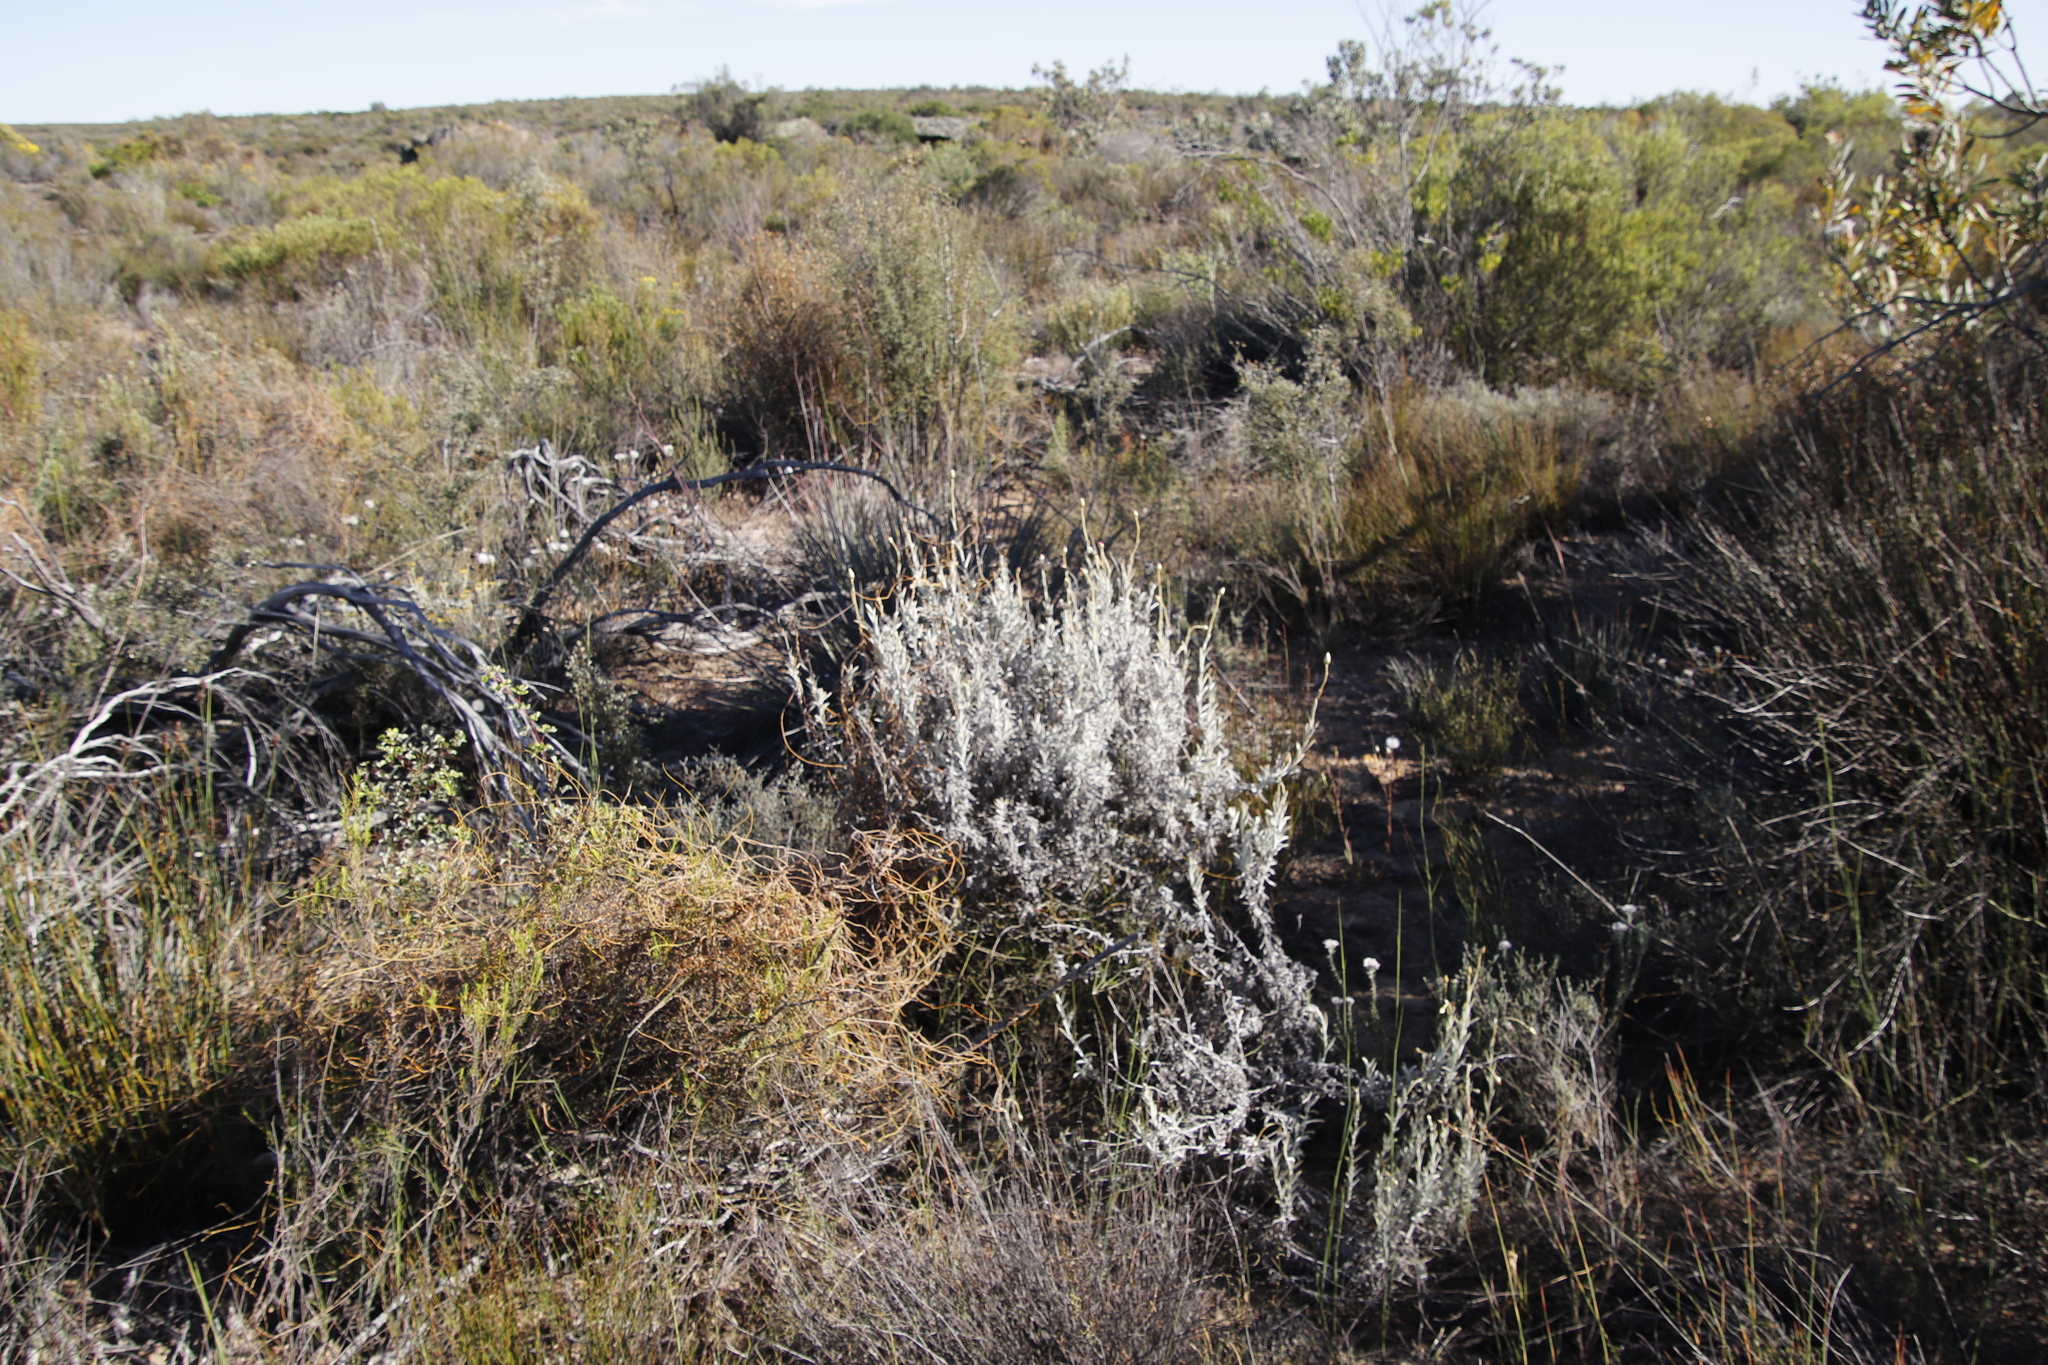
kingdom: Plantae
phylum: Tracheophyta
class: Magnoliopsida
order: Asterales
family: Asteraceae
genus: Achyranthemum
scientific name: Achyranthemum affine
